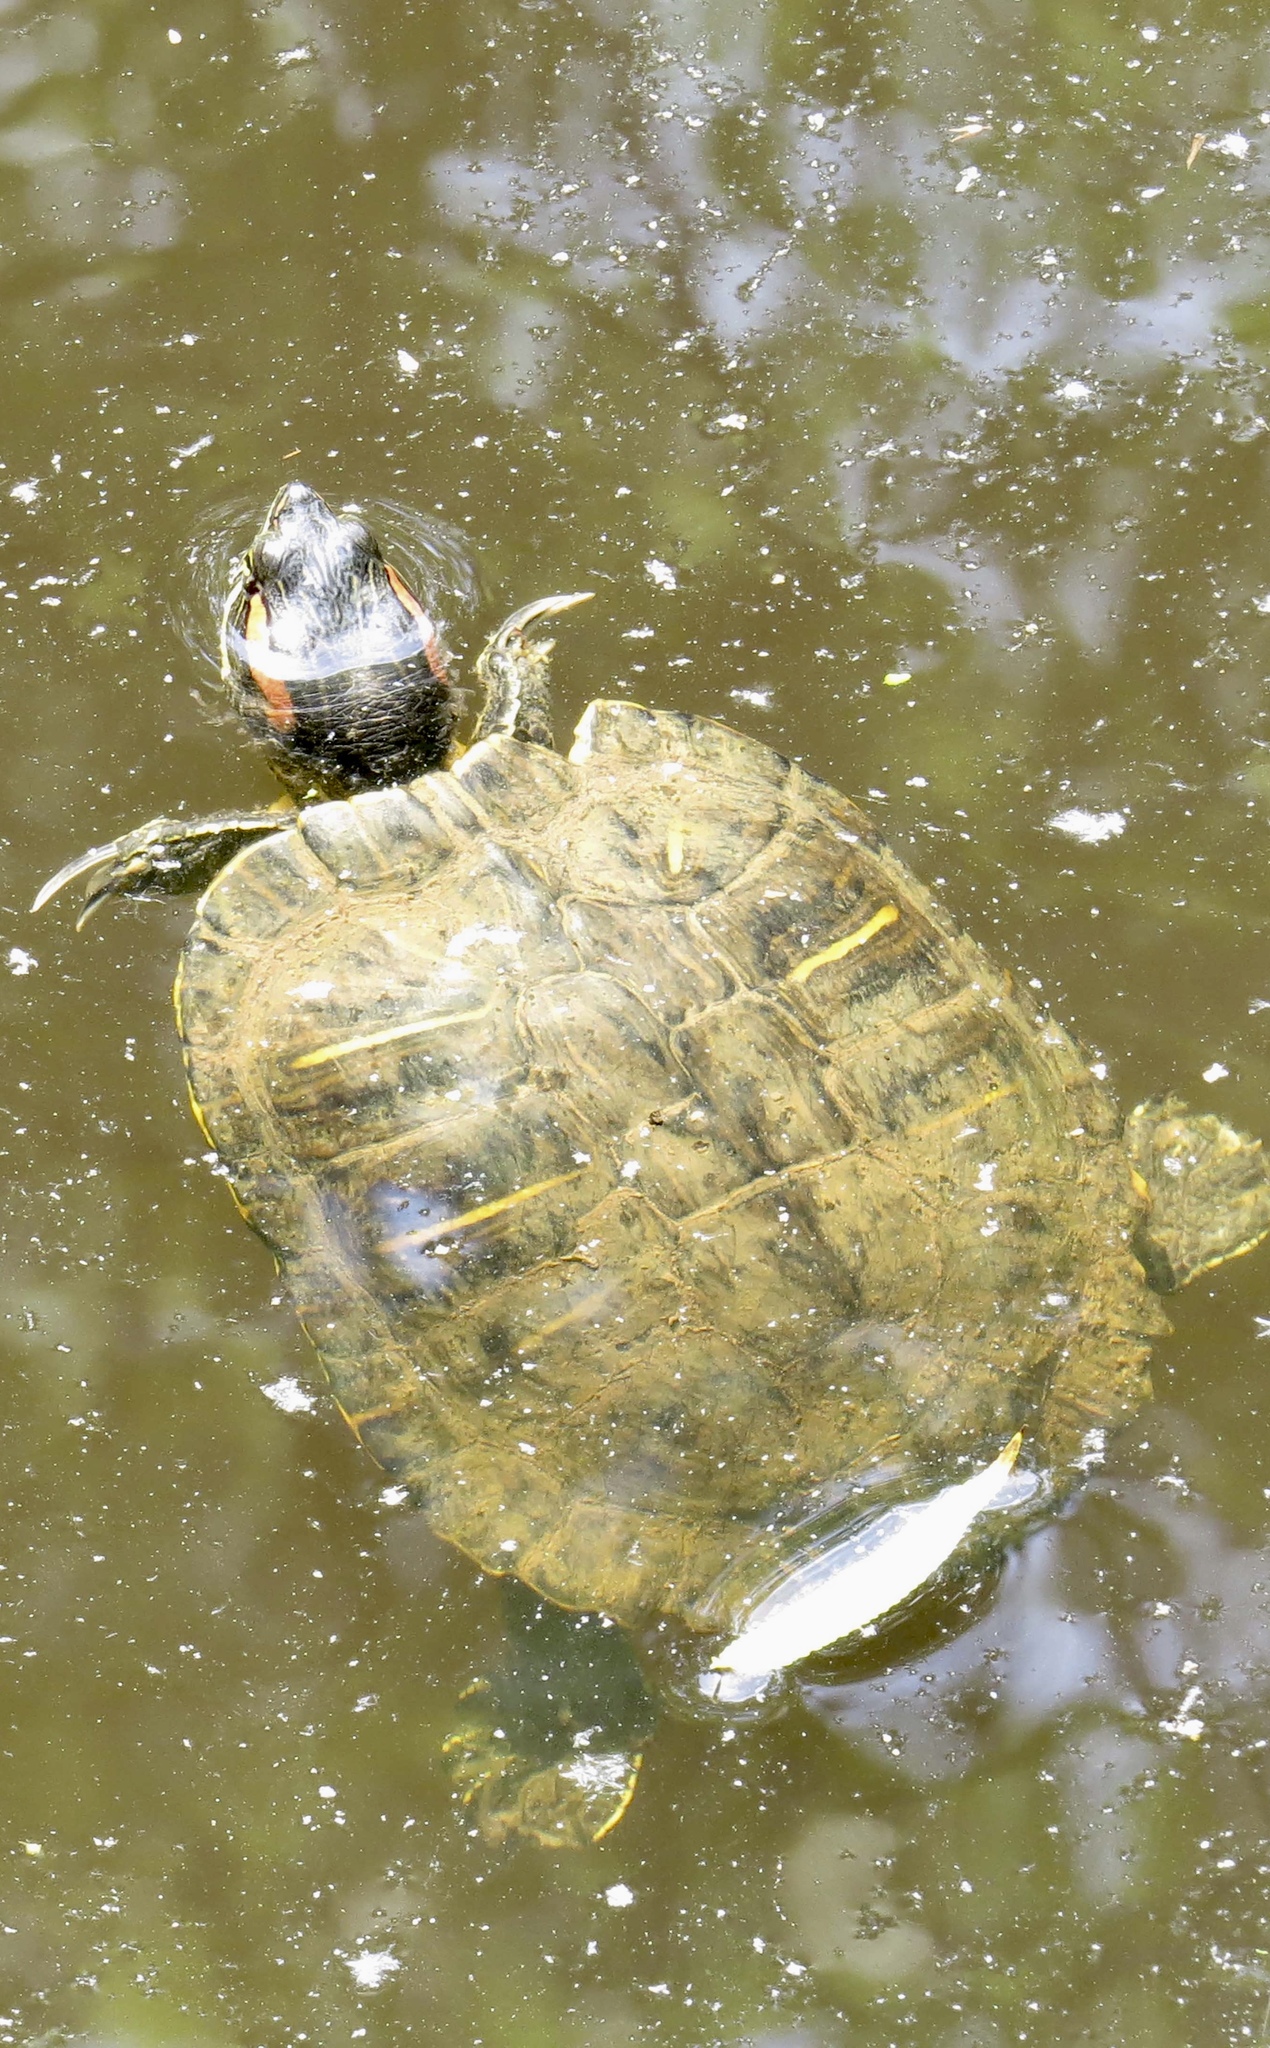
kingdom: Animalia
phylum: Chordata
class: Testudines
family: Emydidae
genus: Trachemys
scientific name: Trachemys scripta
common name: Slider
